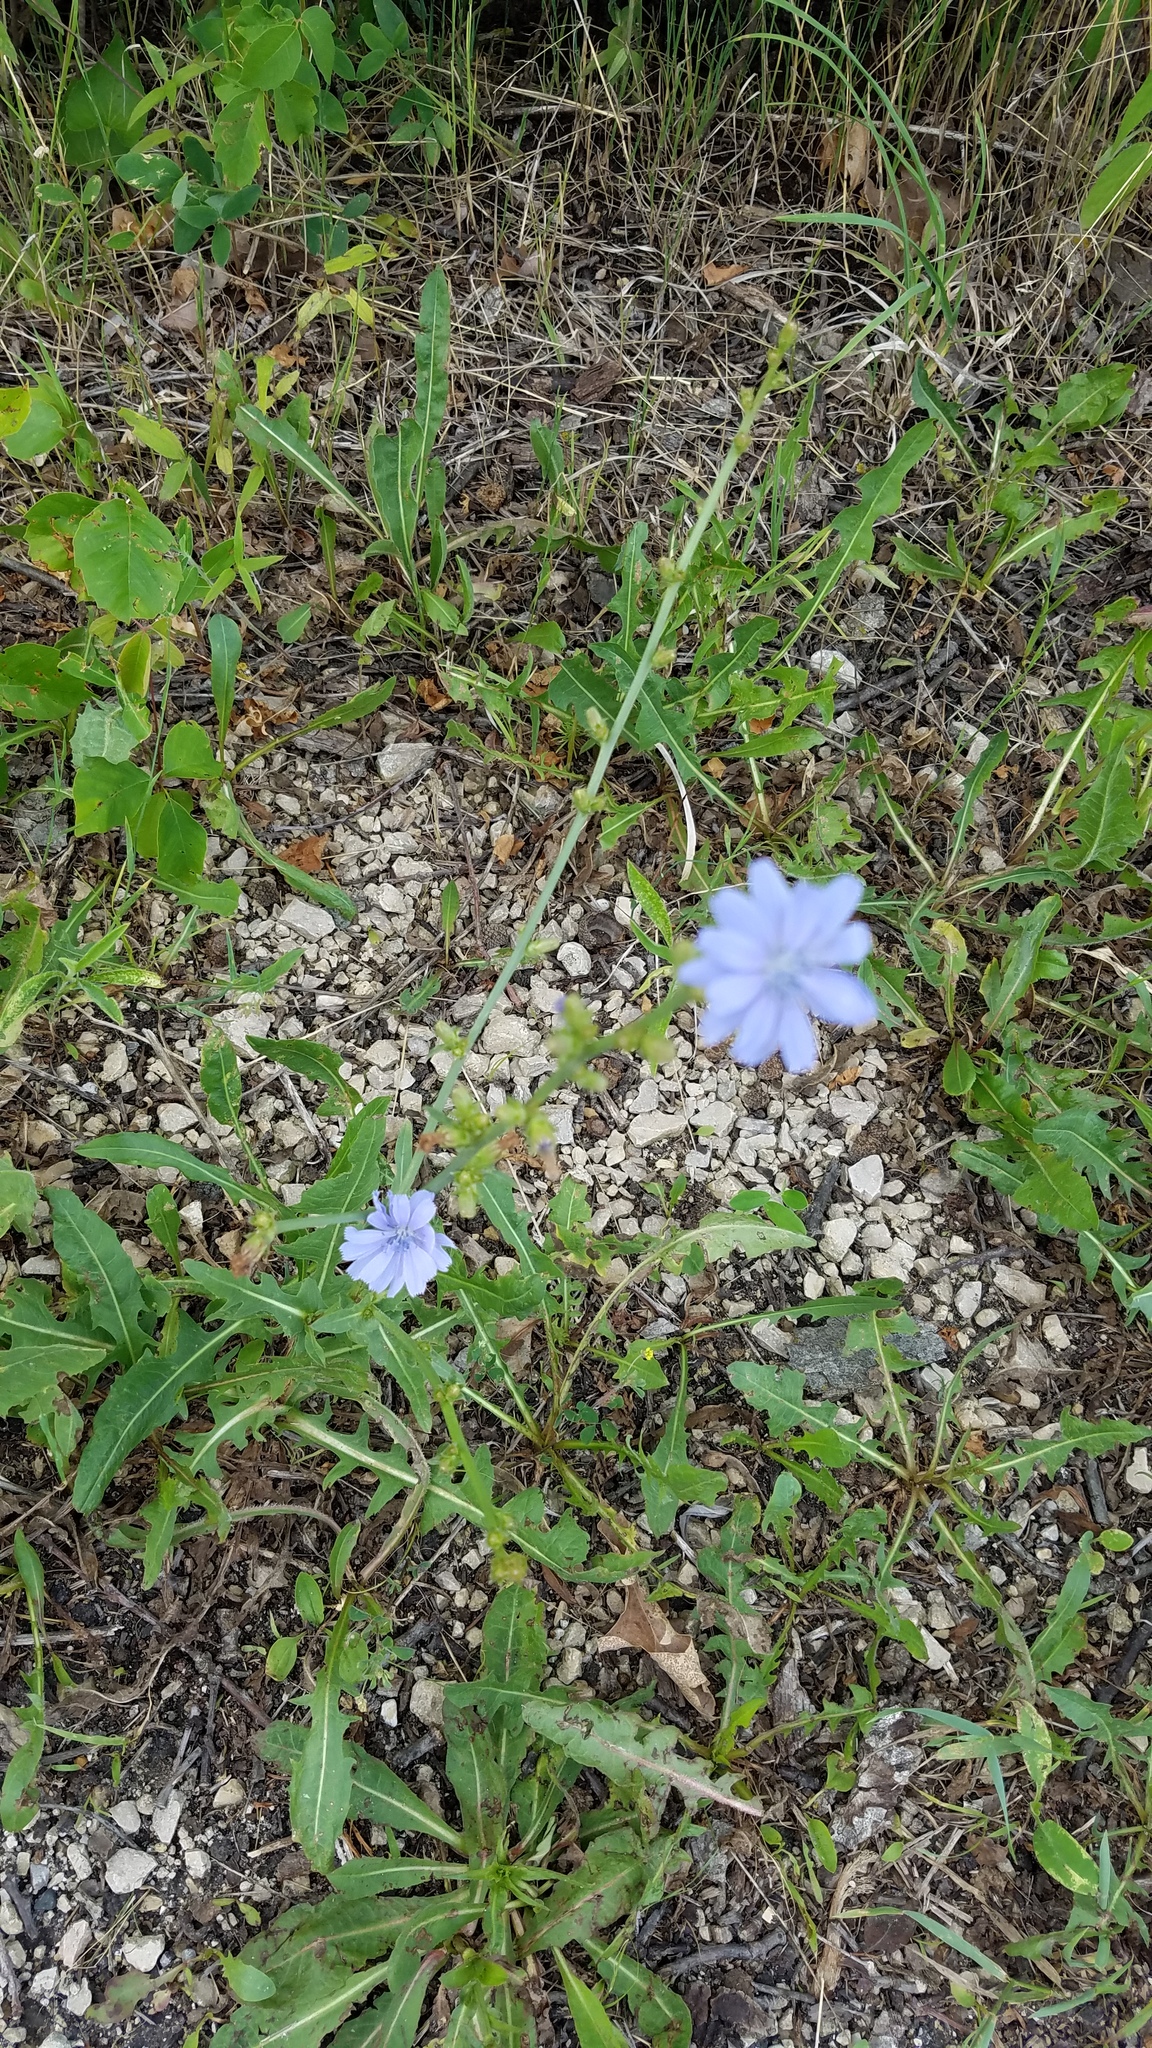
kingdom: Plantae
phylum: Tracheophyta
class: Magnoliopsida
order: Asterales
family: Asteraceae
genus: Cichorium
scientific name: Cichorium intybus
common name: Chicory
